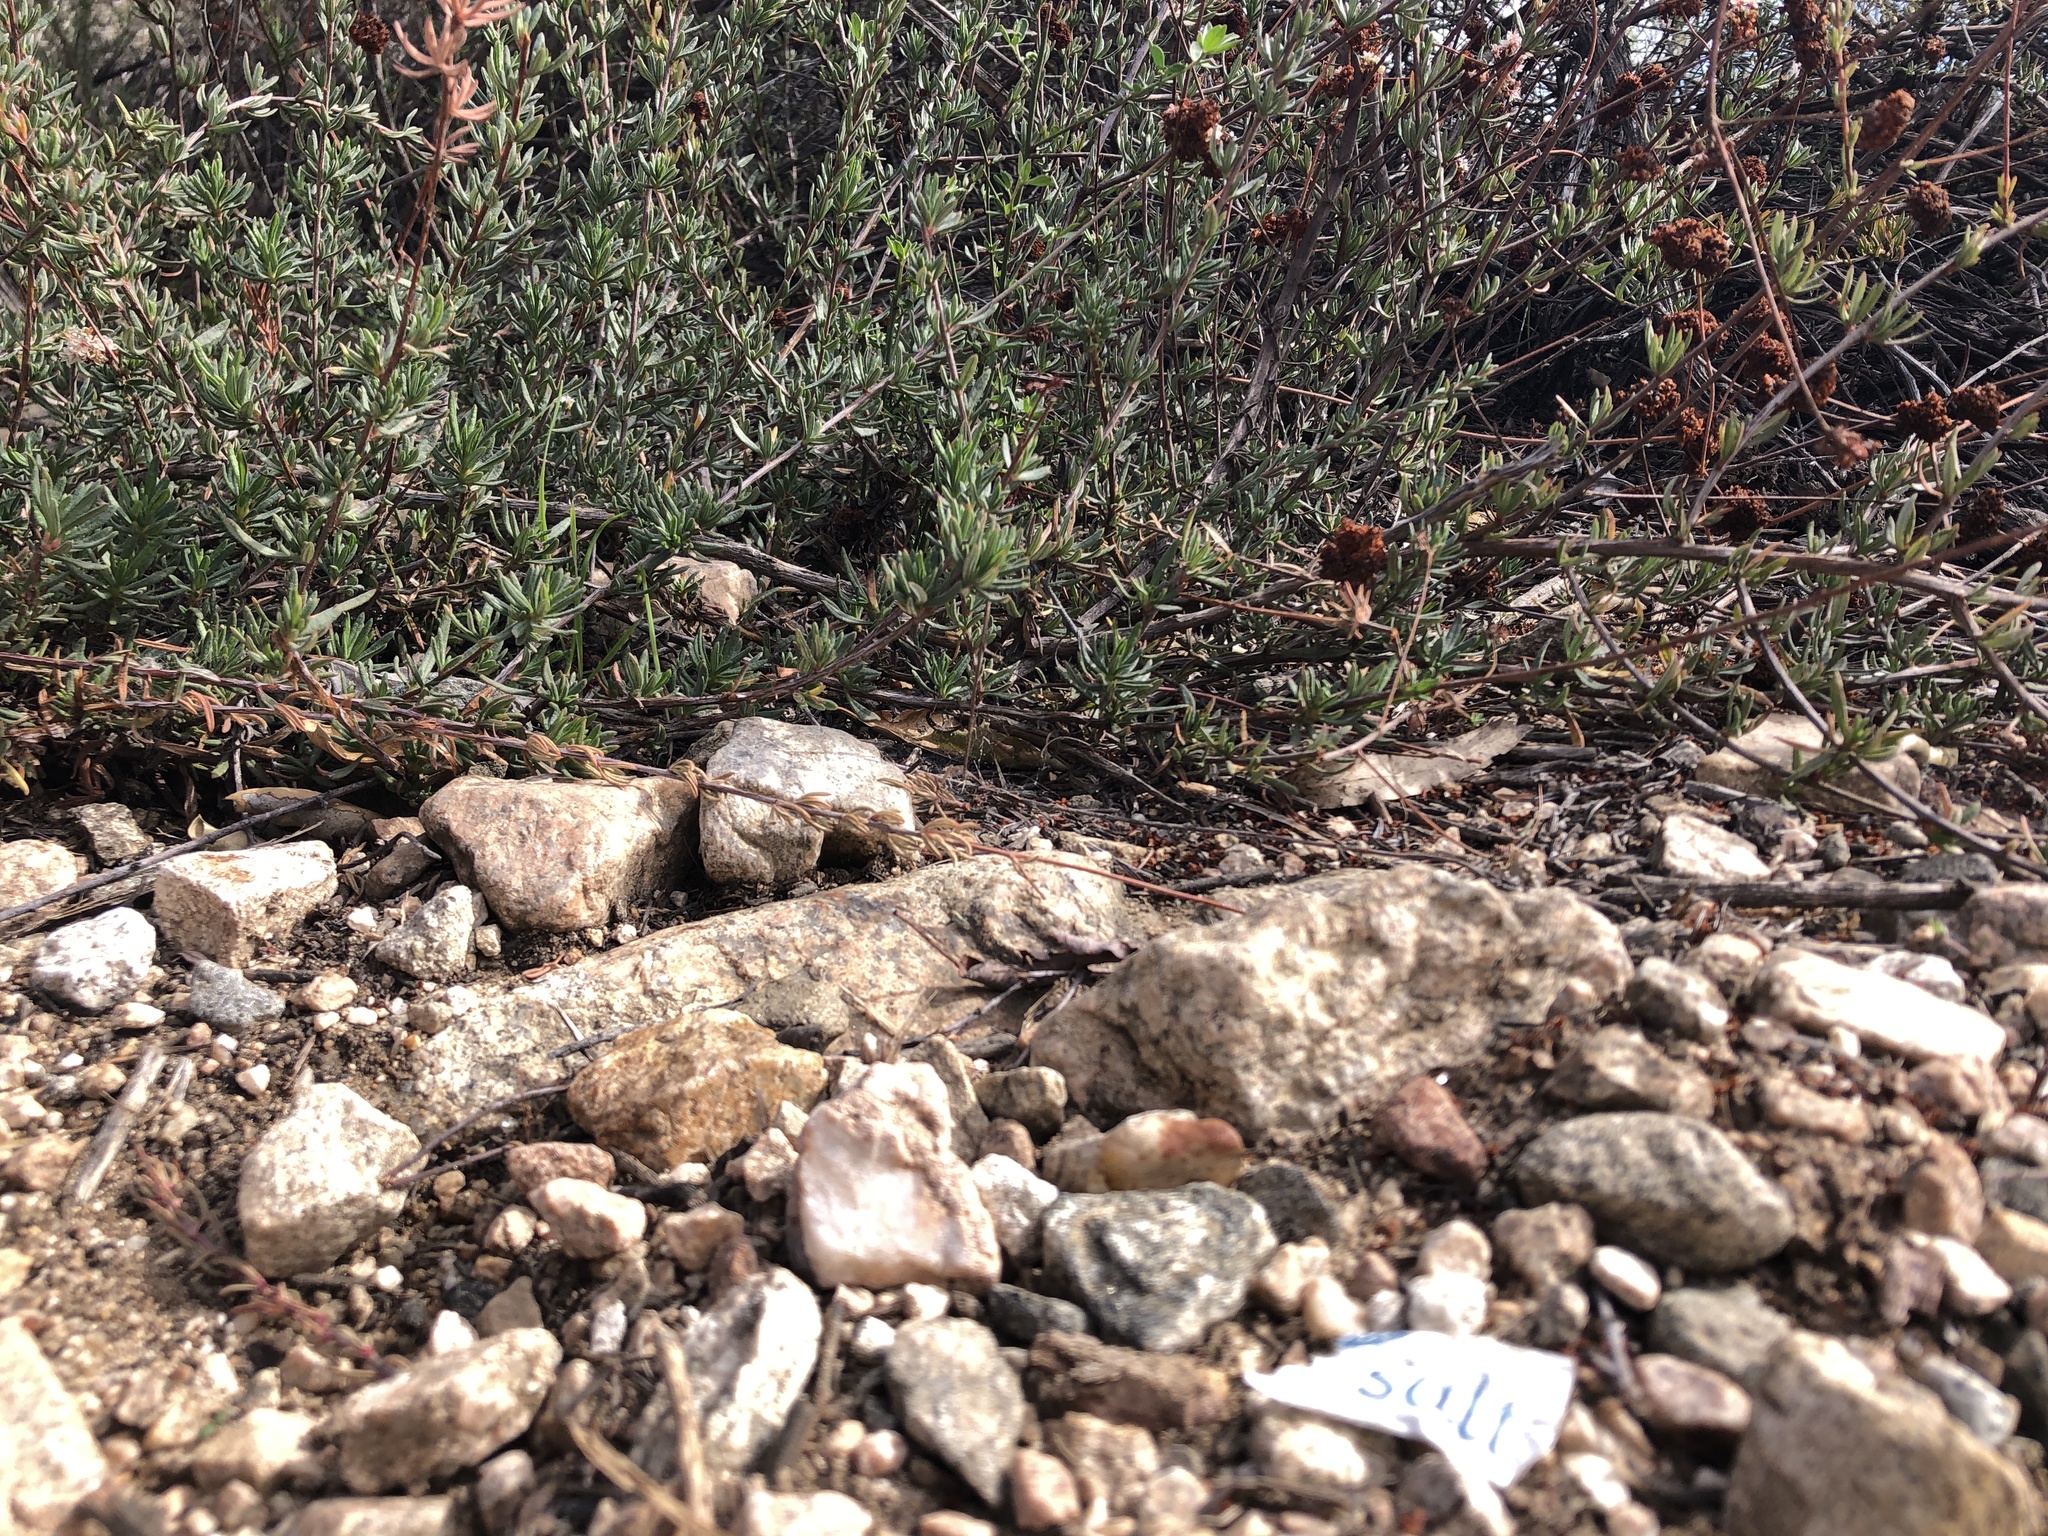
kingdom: Plantae
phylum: Tracheophyta
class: Magnoliopsida
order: Caryophyllales
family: Polygonaceae
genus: Eriogonum
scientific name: Eriogonum fasciculatum
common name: California wild buckwheat
